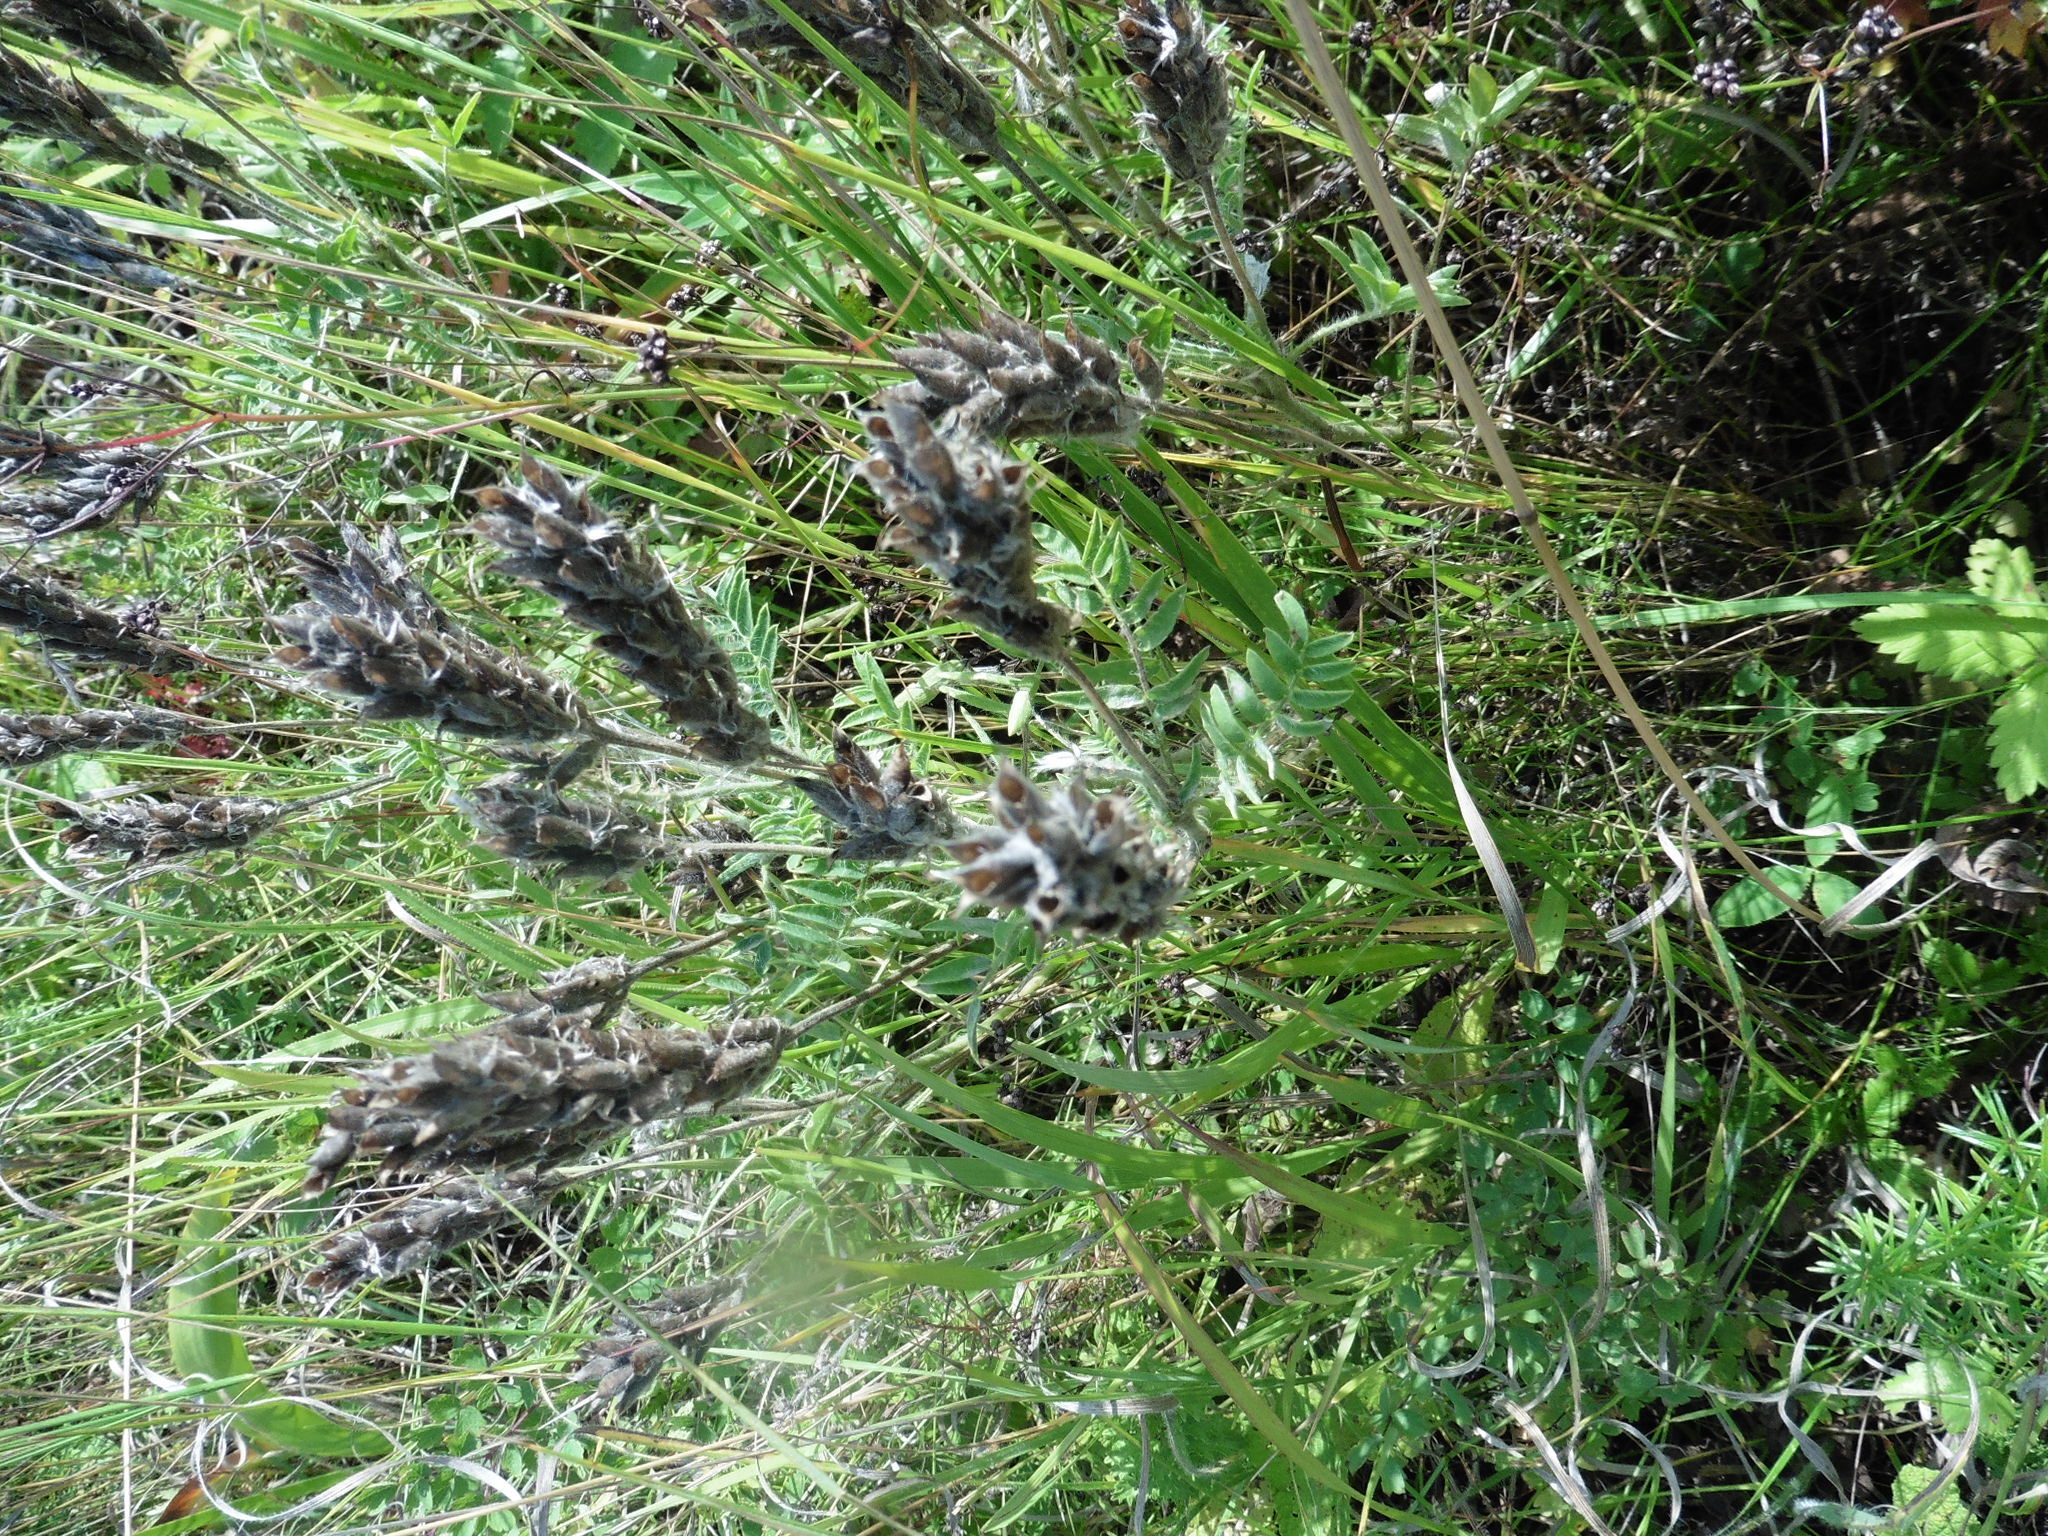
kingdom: Plantae
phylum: Tracheophyta
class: Magnoliopsida
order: Fabales
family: Fabaceae
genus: Oxytropis
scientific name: Oxytropis pilosa
